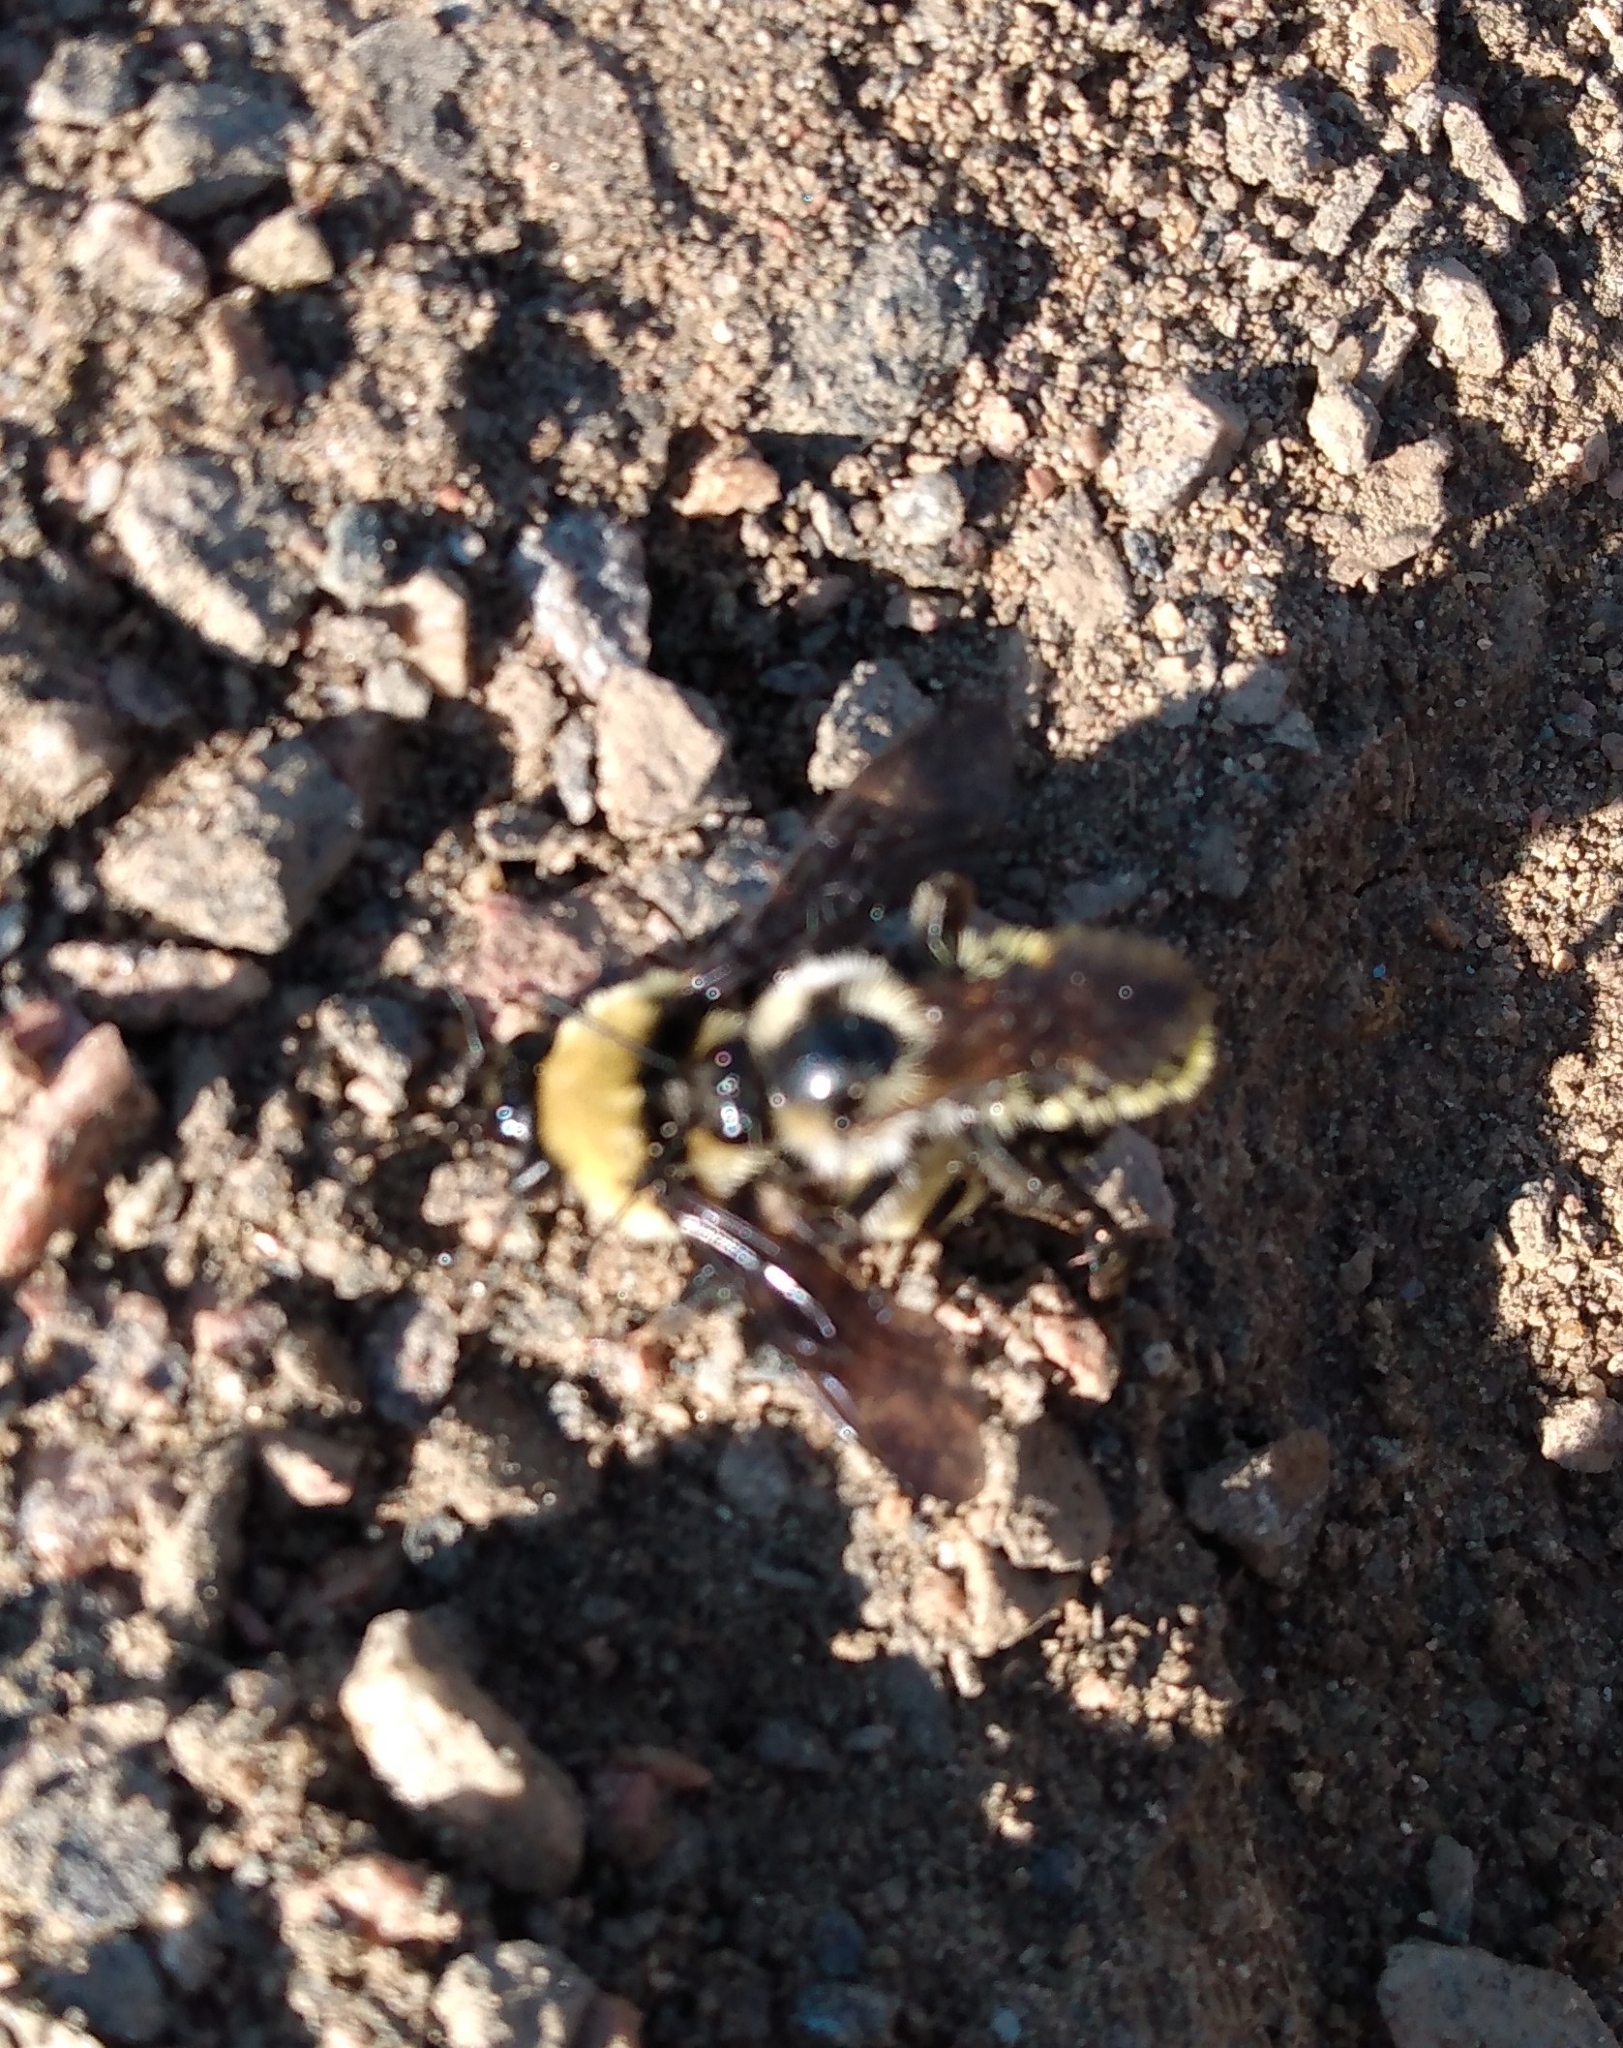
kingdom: Animalia
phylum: Arthropoda
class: Insecta
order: Hymenoptera
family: Apidae
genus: Bombus
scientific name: Bombus fervidus
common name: Yellow bumble bee
